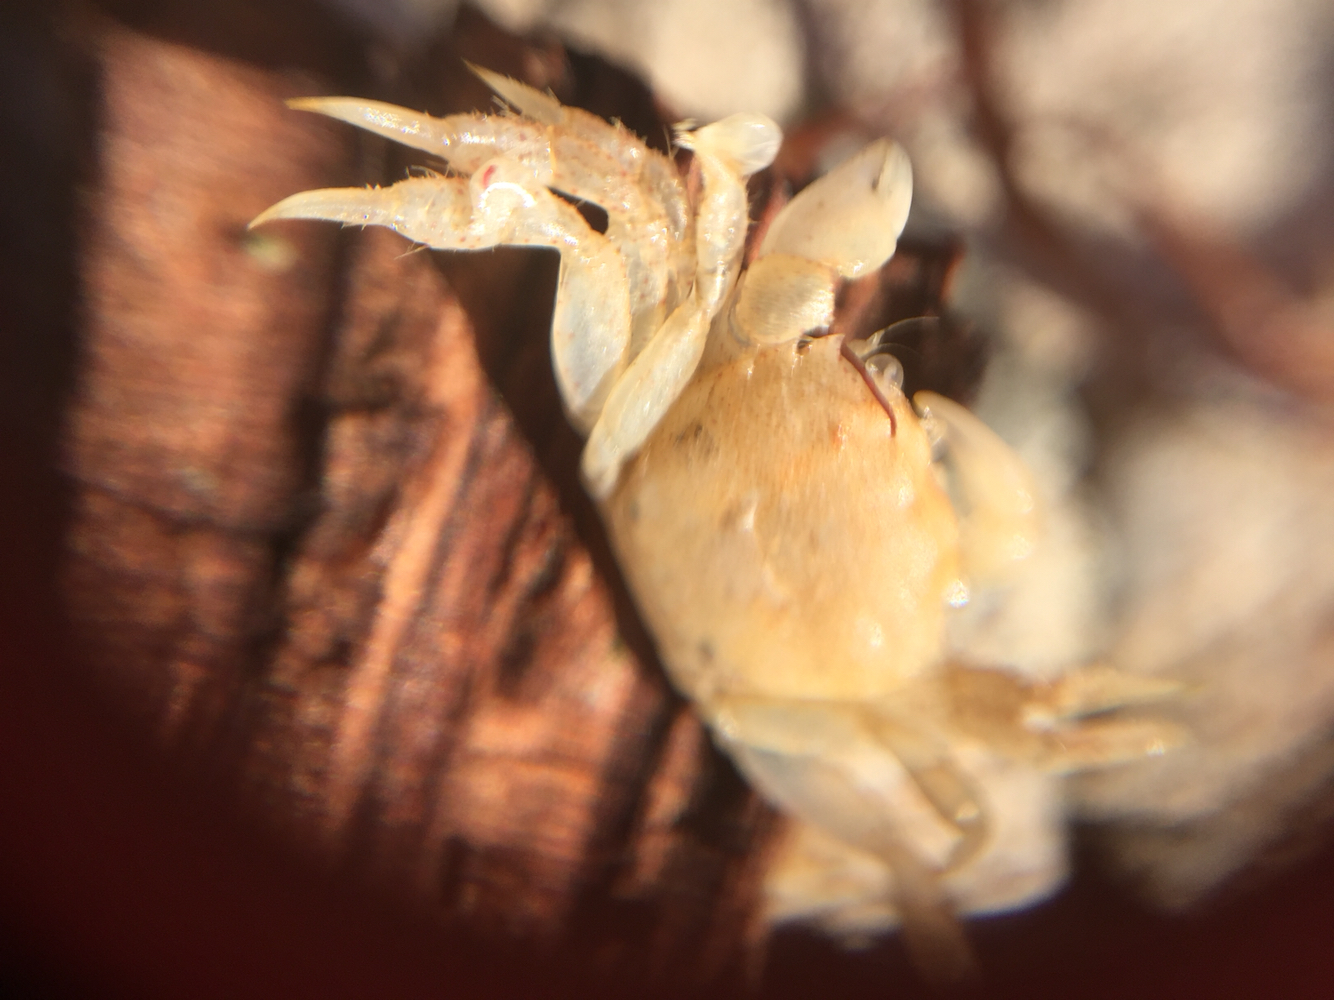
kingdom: Animalia
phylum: Arthropoda
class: Malacostraca
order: Decapoda
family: Varunidae
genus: Hemigrapsus
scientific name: Hemigrapsus oregonensis
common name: Yellow shore crab
